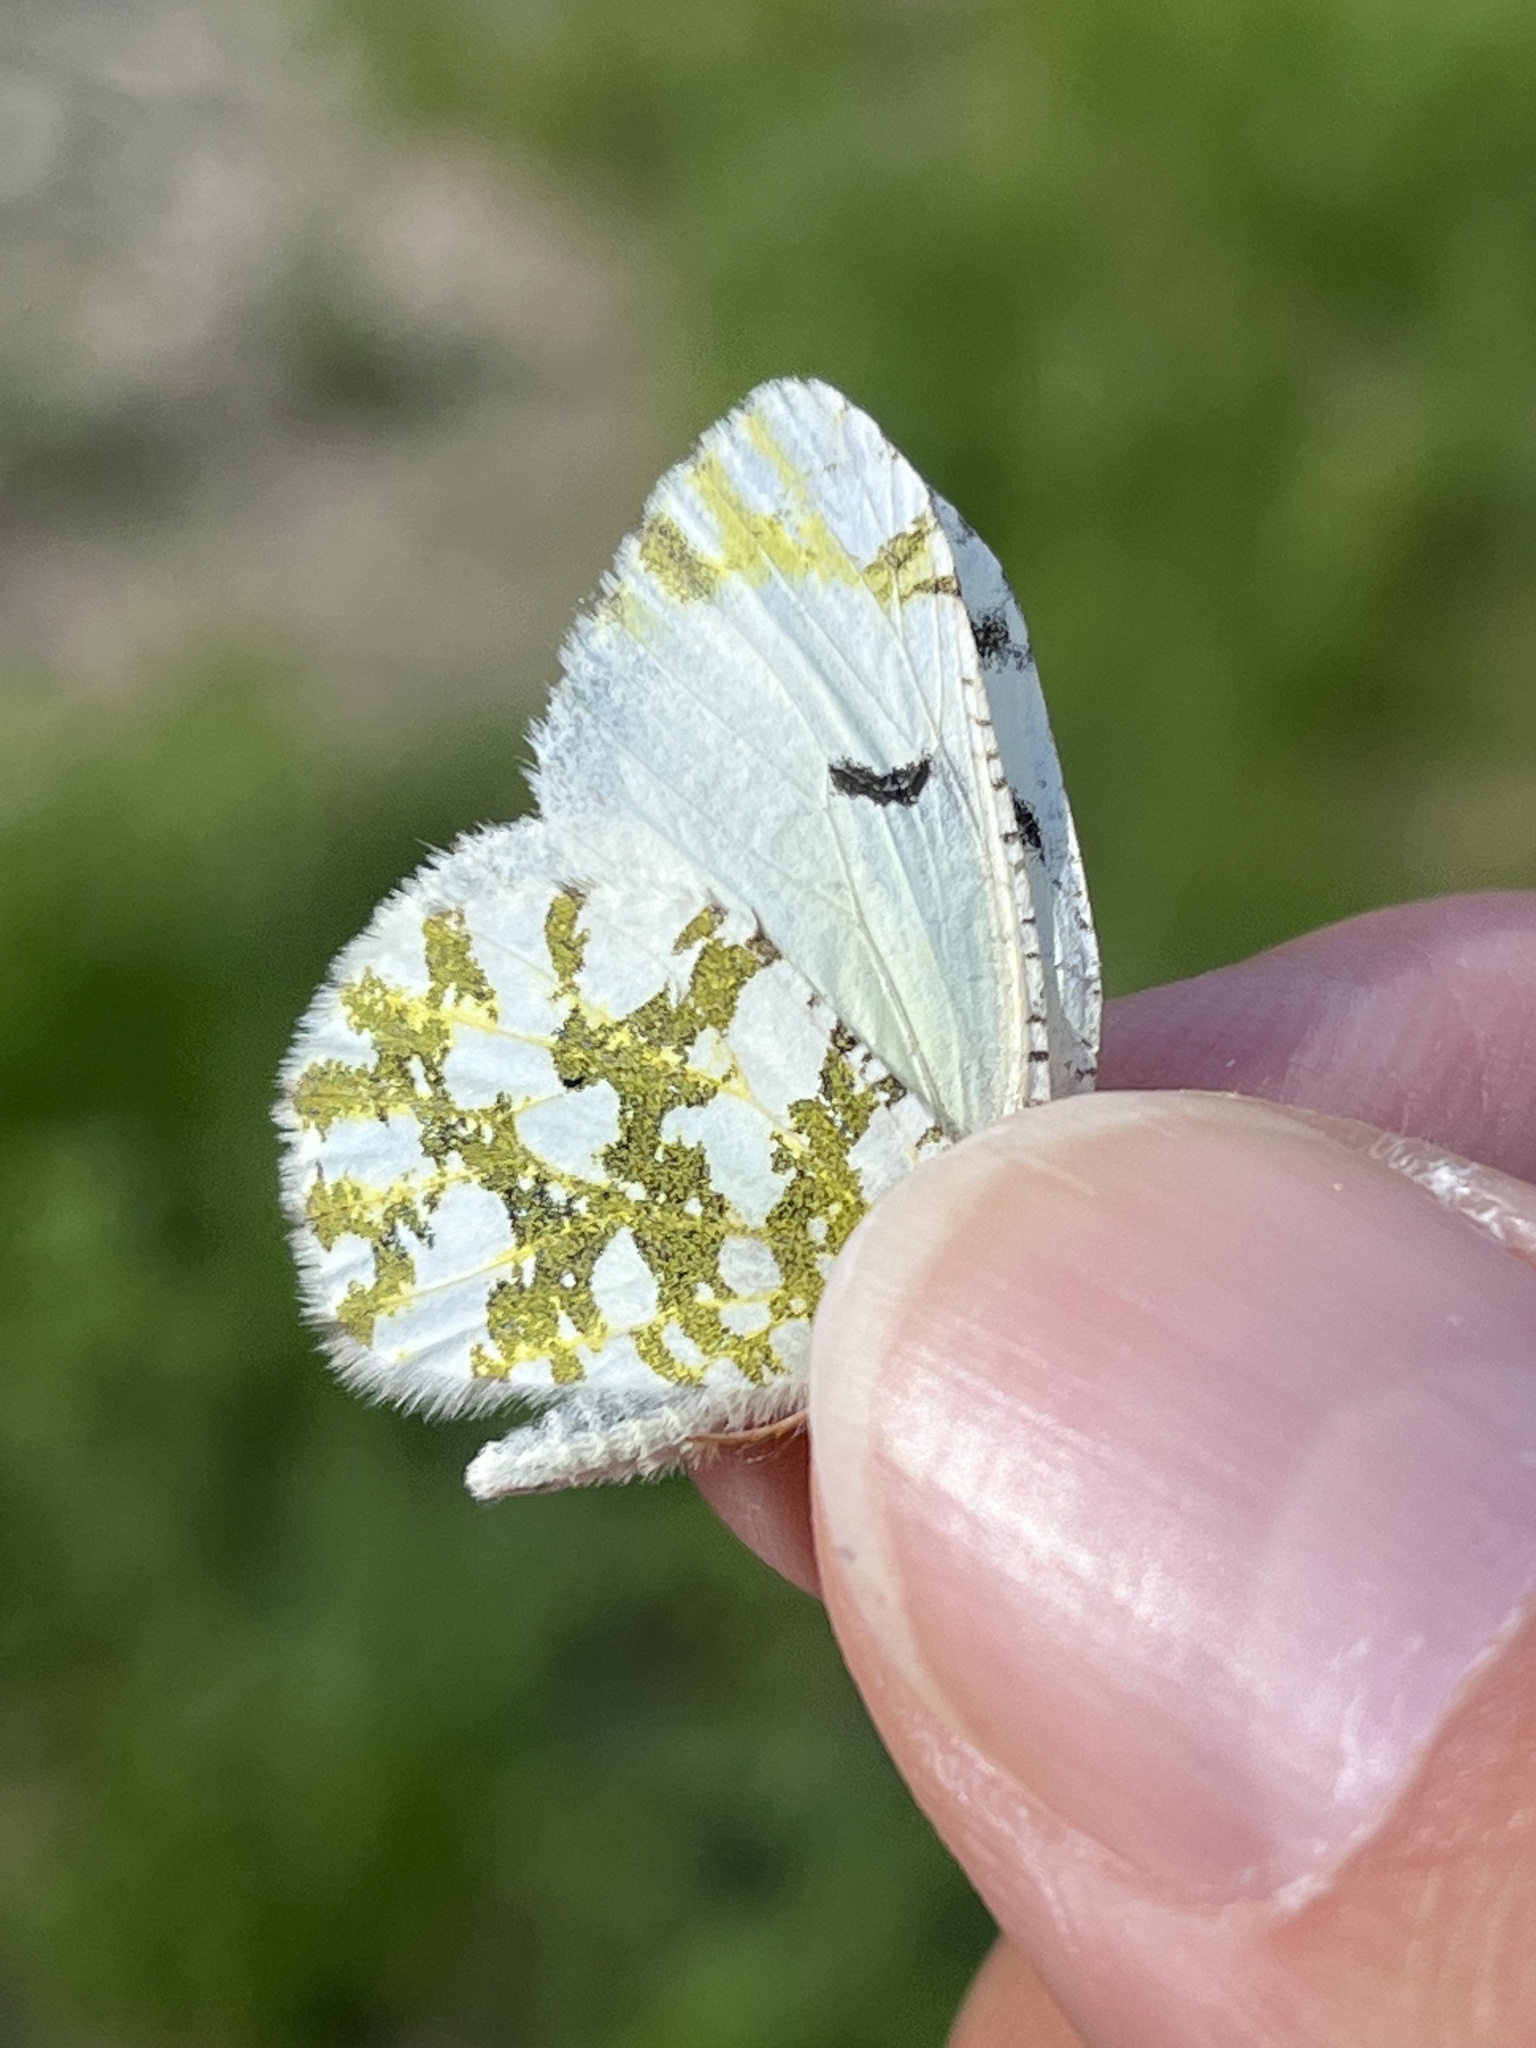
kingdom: Animalia
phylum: Arthropoda
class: Insecta
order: Lepidoptera
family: Pieridae
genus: Euchloe
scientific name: Euchloe ausonides
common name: Creamy marblewing
